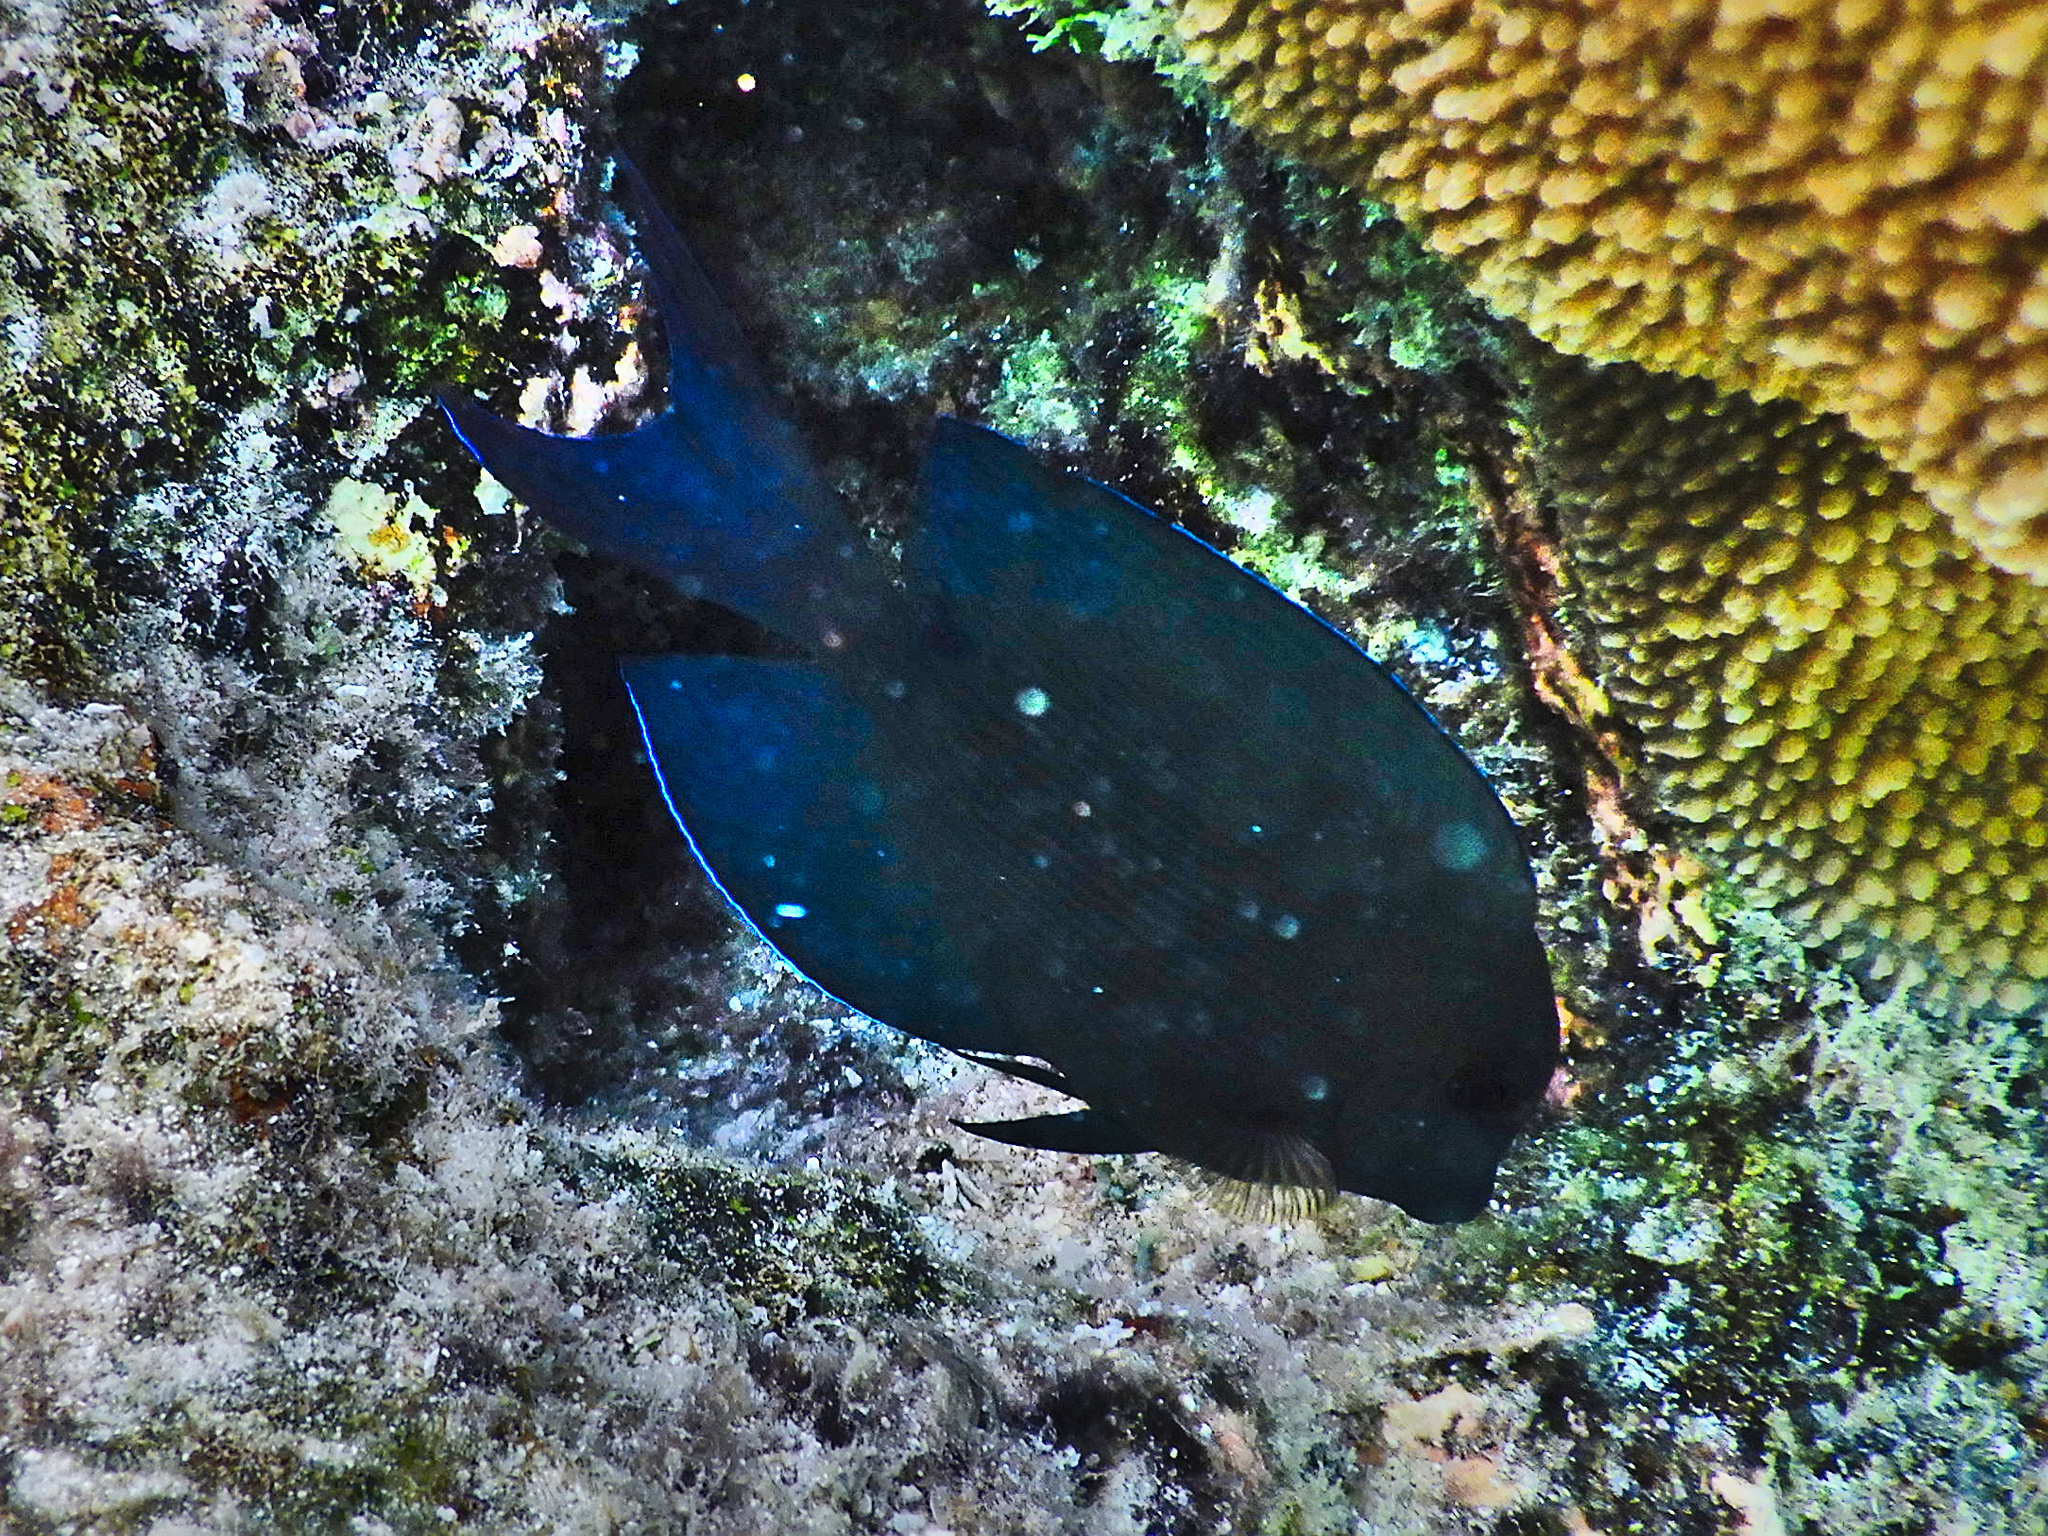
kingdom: Animalia
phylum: Chordata
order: Perciformes
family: Acanthuridae
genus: Ctenochaetus
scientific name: Ctenochaetus striatus
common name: Bristle-toothed surgeonfish
